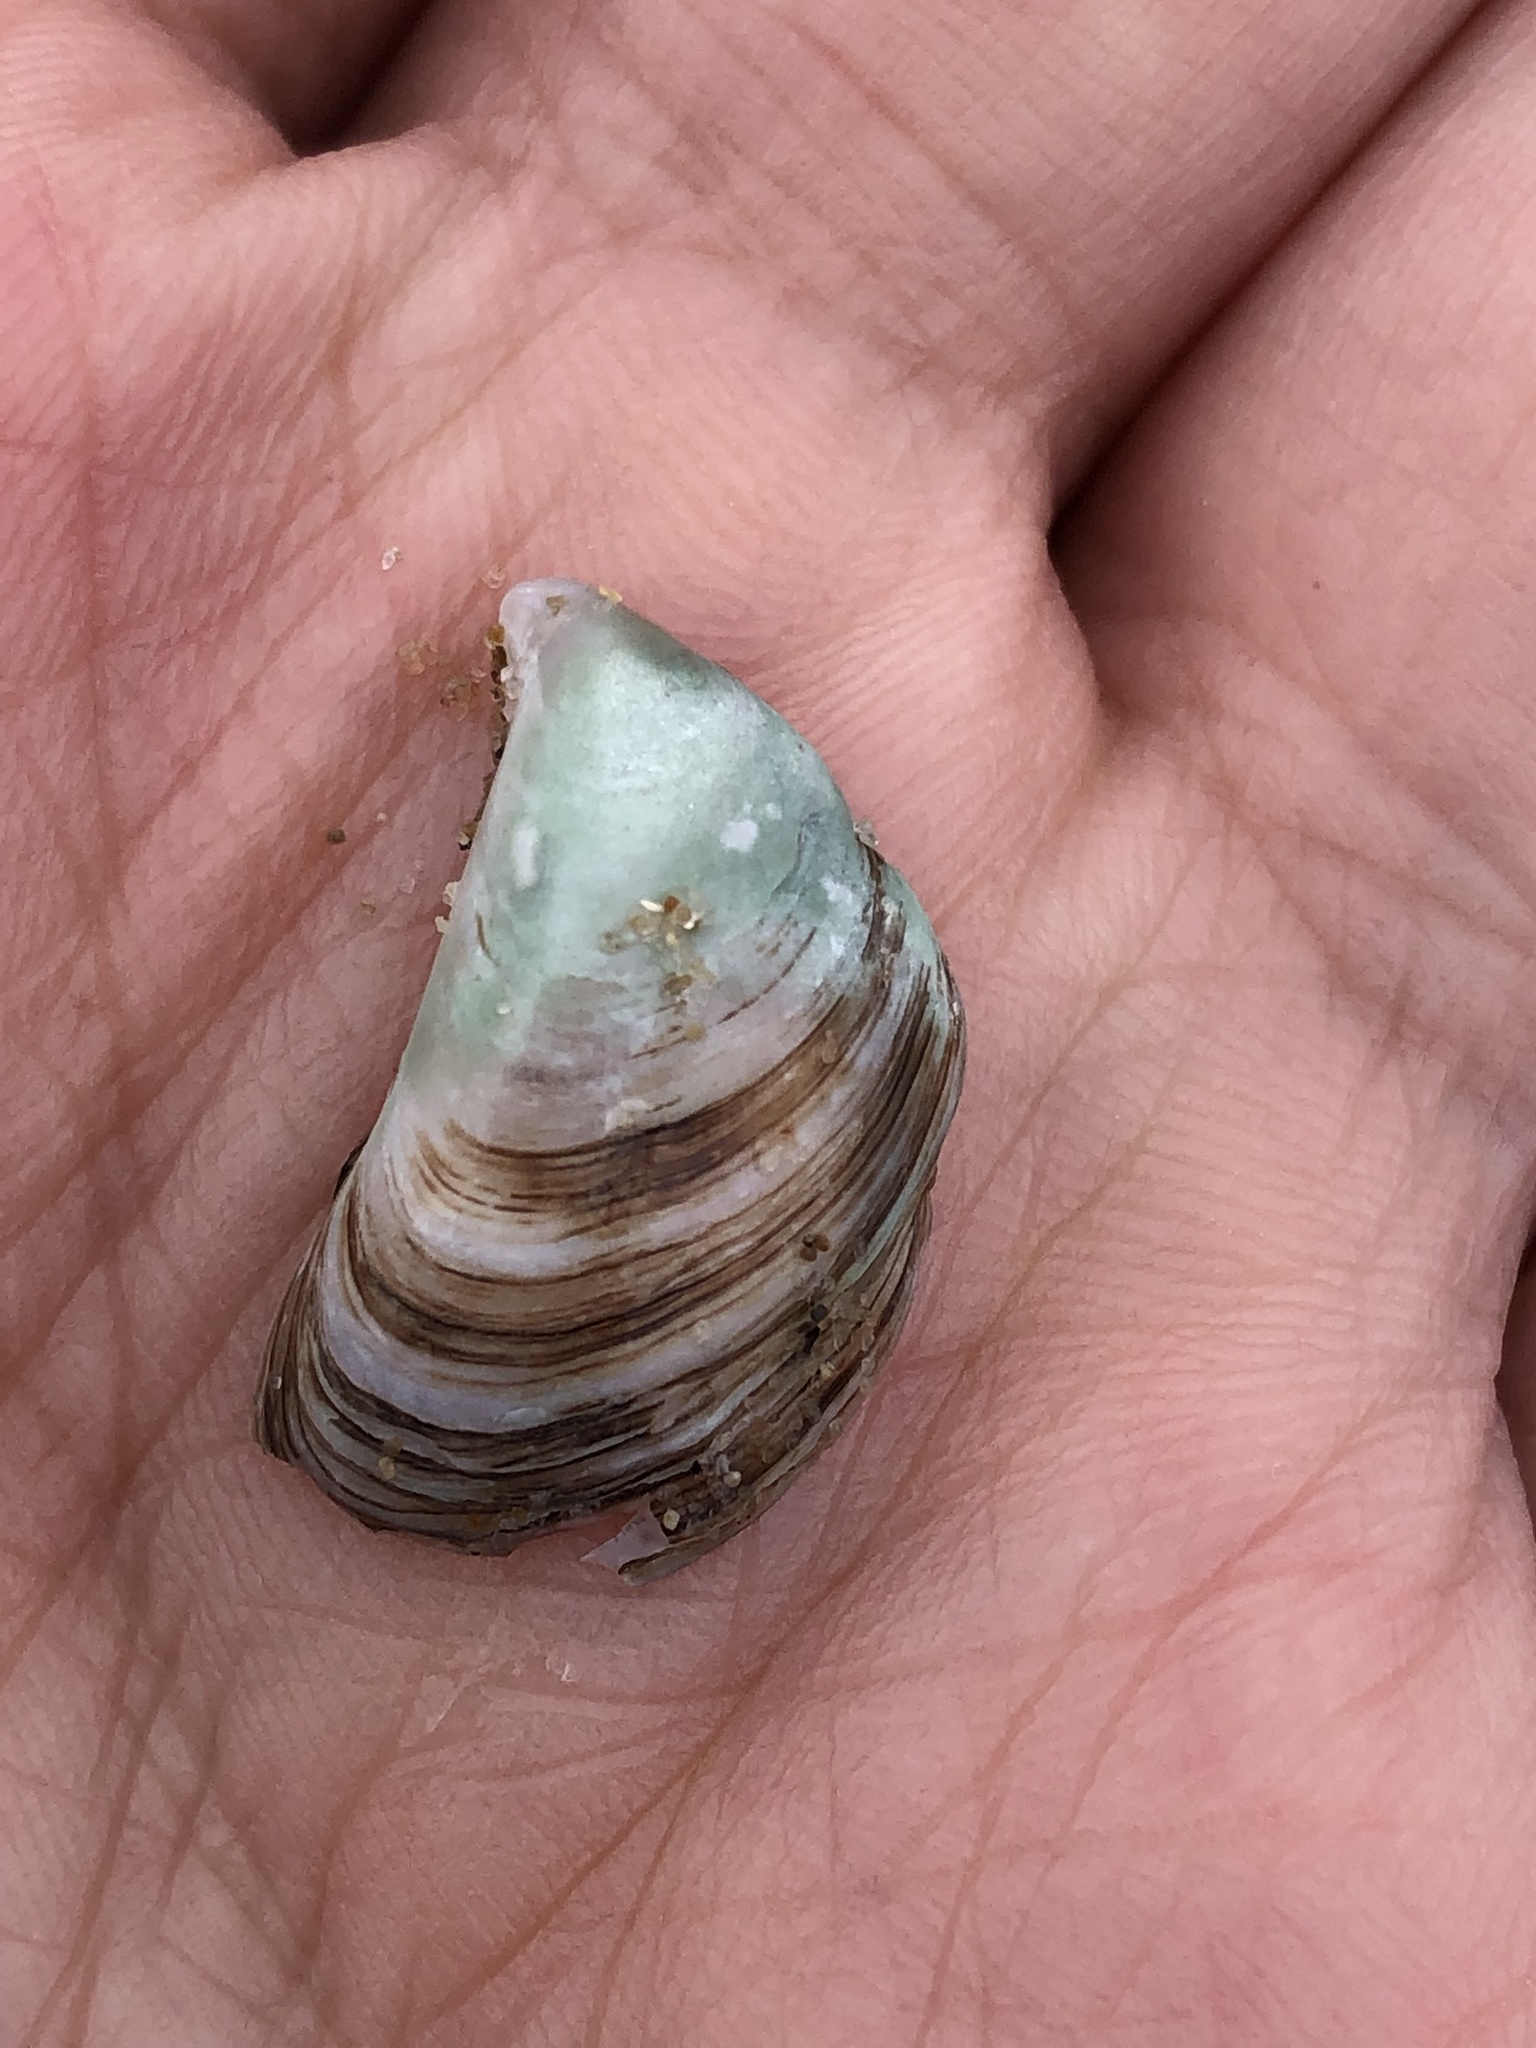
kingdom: Animalia
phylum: Mollusca
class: Bivalvia
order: Myida
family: Dreissenidae
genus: Dreissena
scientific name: Dreissena bugensis
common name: Quagga mussel
